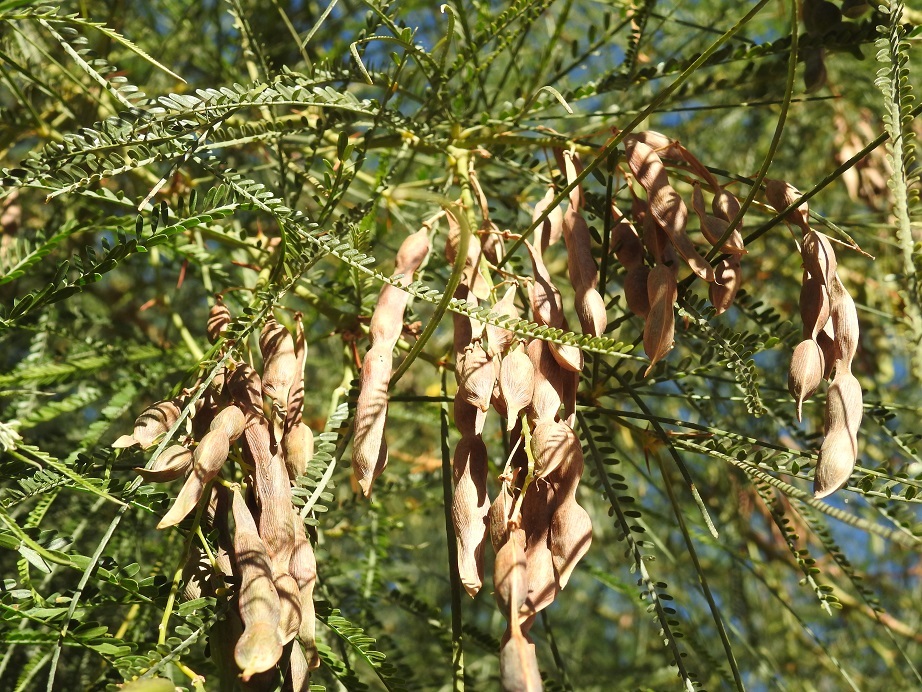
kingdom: Plantae
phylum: Tracheophyta
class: Magnoliopsida
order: Fabales
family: Fabaceae
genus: Parkinsonia
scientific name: Parkinsonia aculeata
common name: Jerusalem thorn
